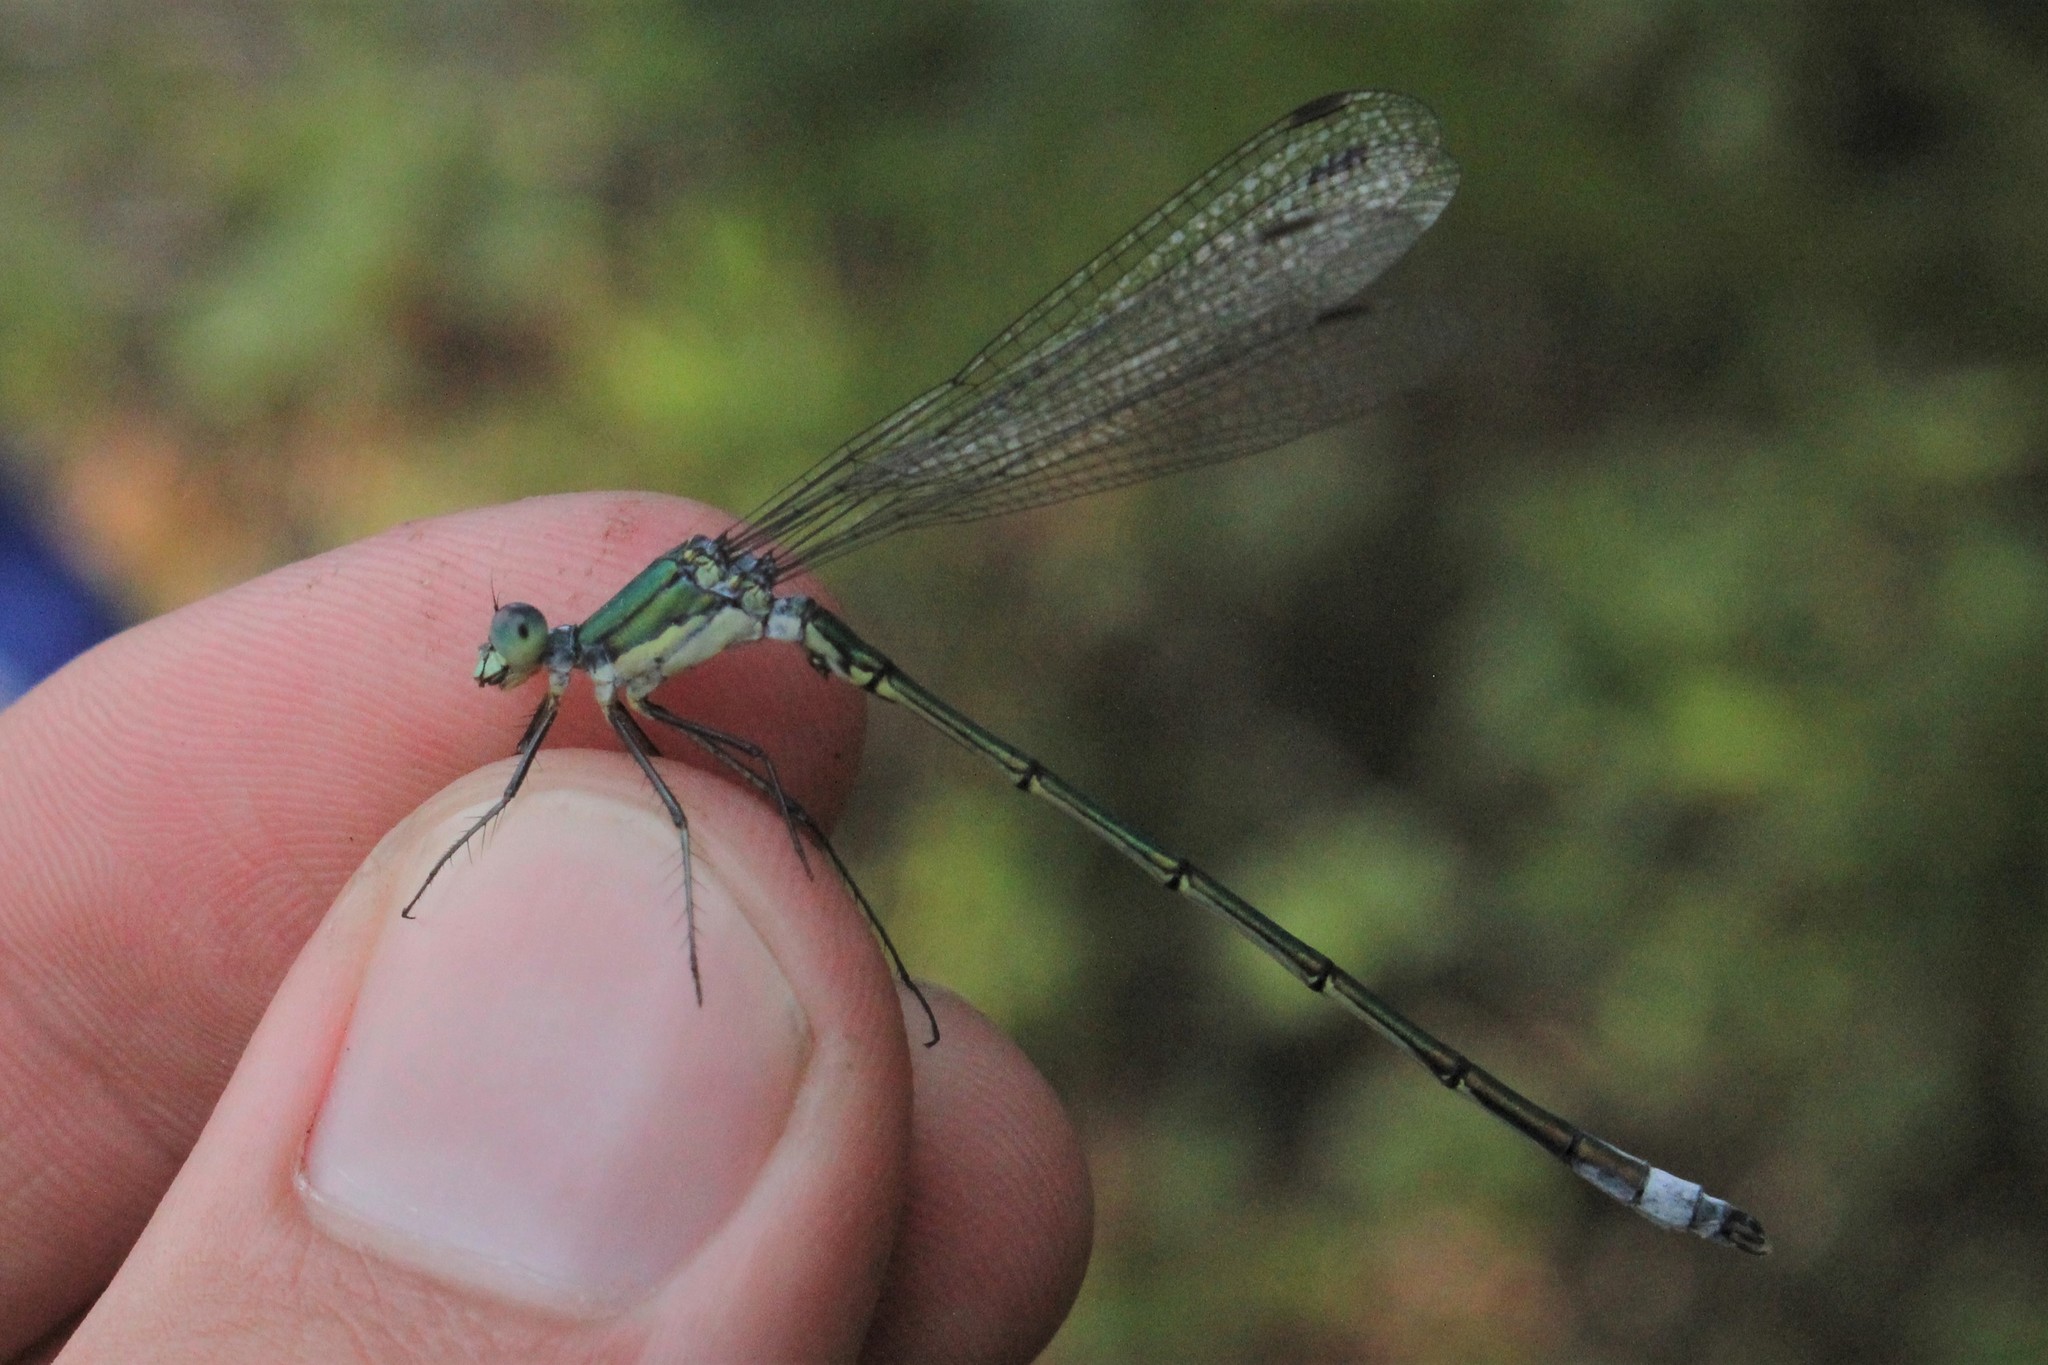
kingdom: Animalia
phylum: Arthropoda
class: Insecta
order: Odonata
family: Lestidae
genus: Lestes
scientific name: Lestes inaequalis
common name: Elegant spreadwing
